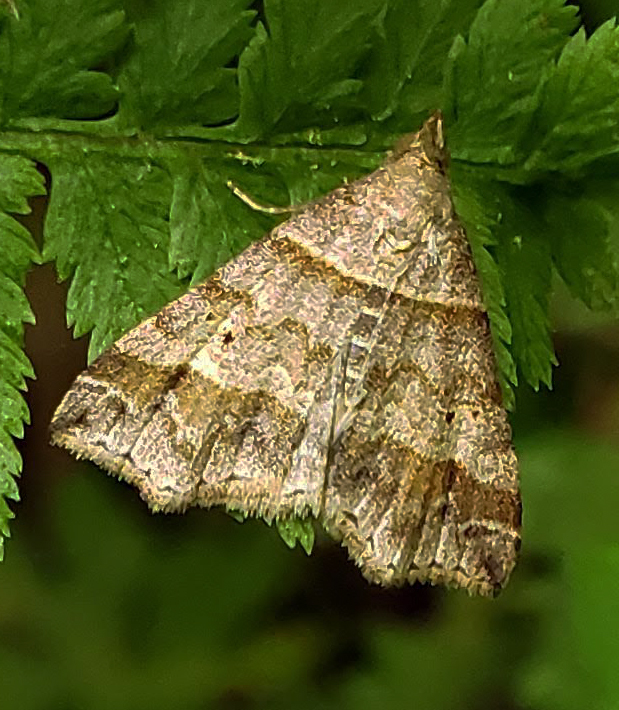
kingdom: Animalia
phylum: Arthropoda
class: Insecta
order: Lepidoptera
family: Erebidae
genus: Phaeolita
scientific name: Phaeolita pyramusalis
